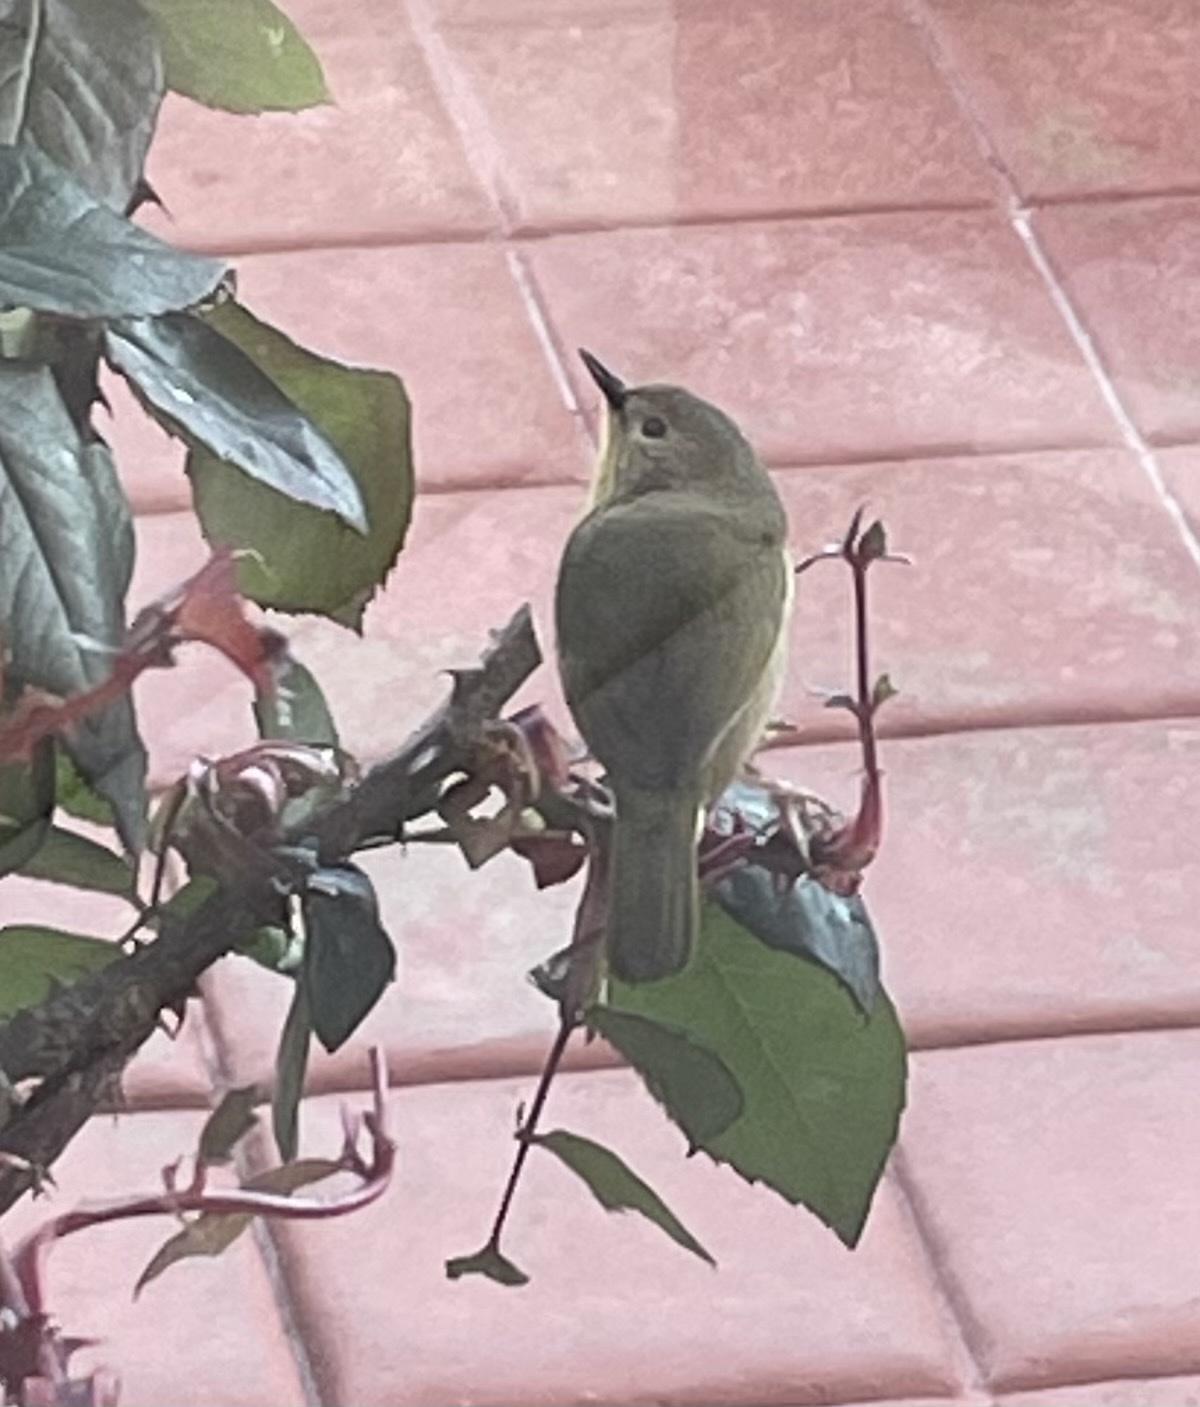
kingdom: Animalia
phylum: Chordata
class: Aves
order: Passeriformes
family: Parulidae
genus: Leiothlypis
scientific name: Leiothlypis celata
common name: Orange-crowned warbler
